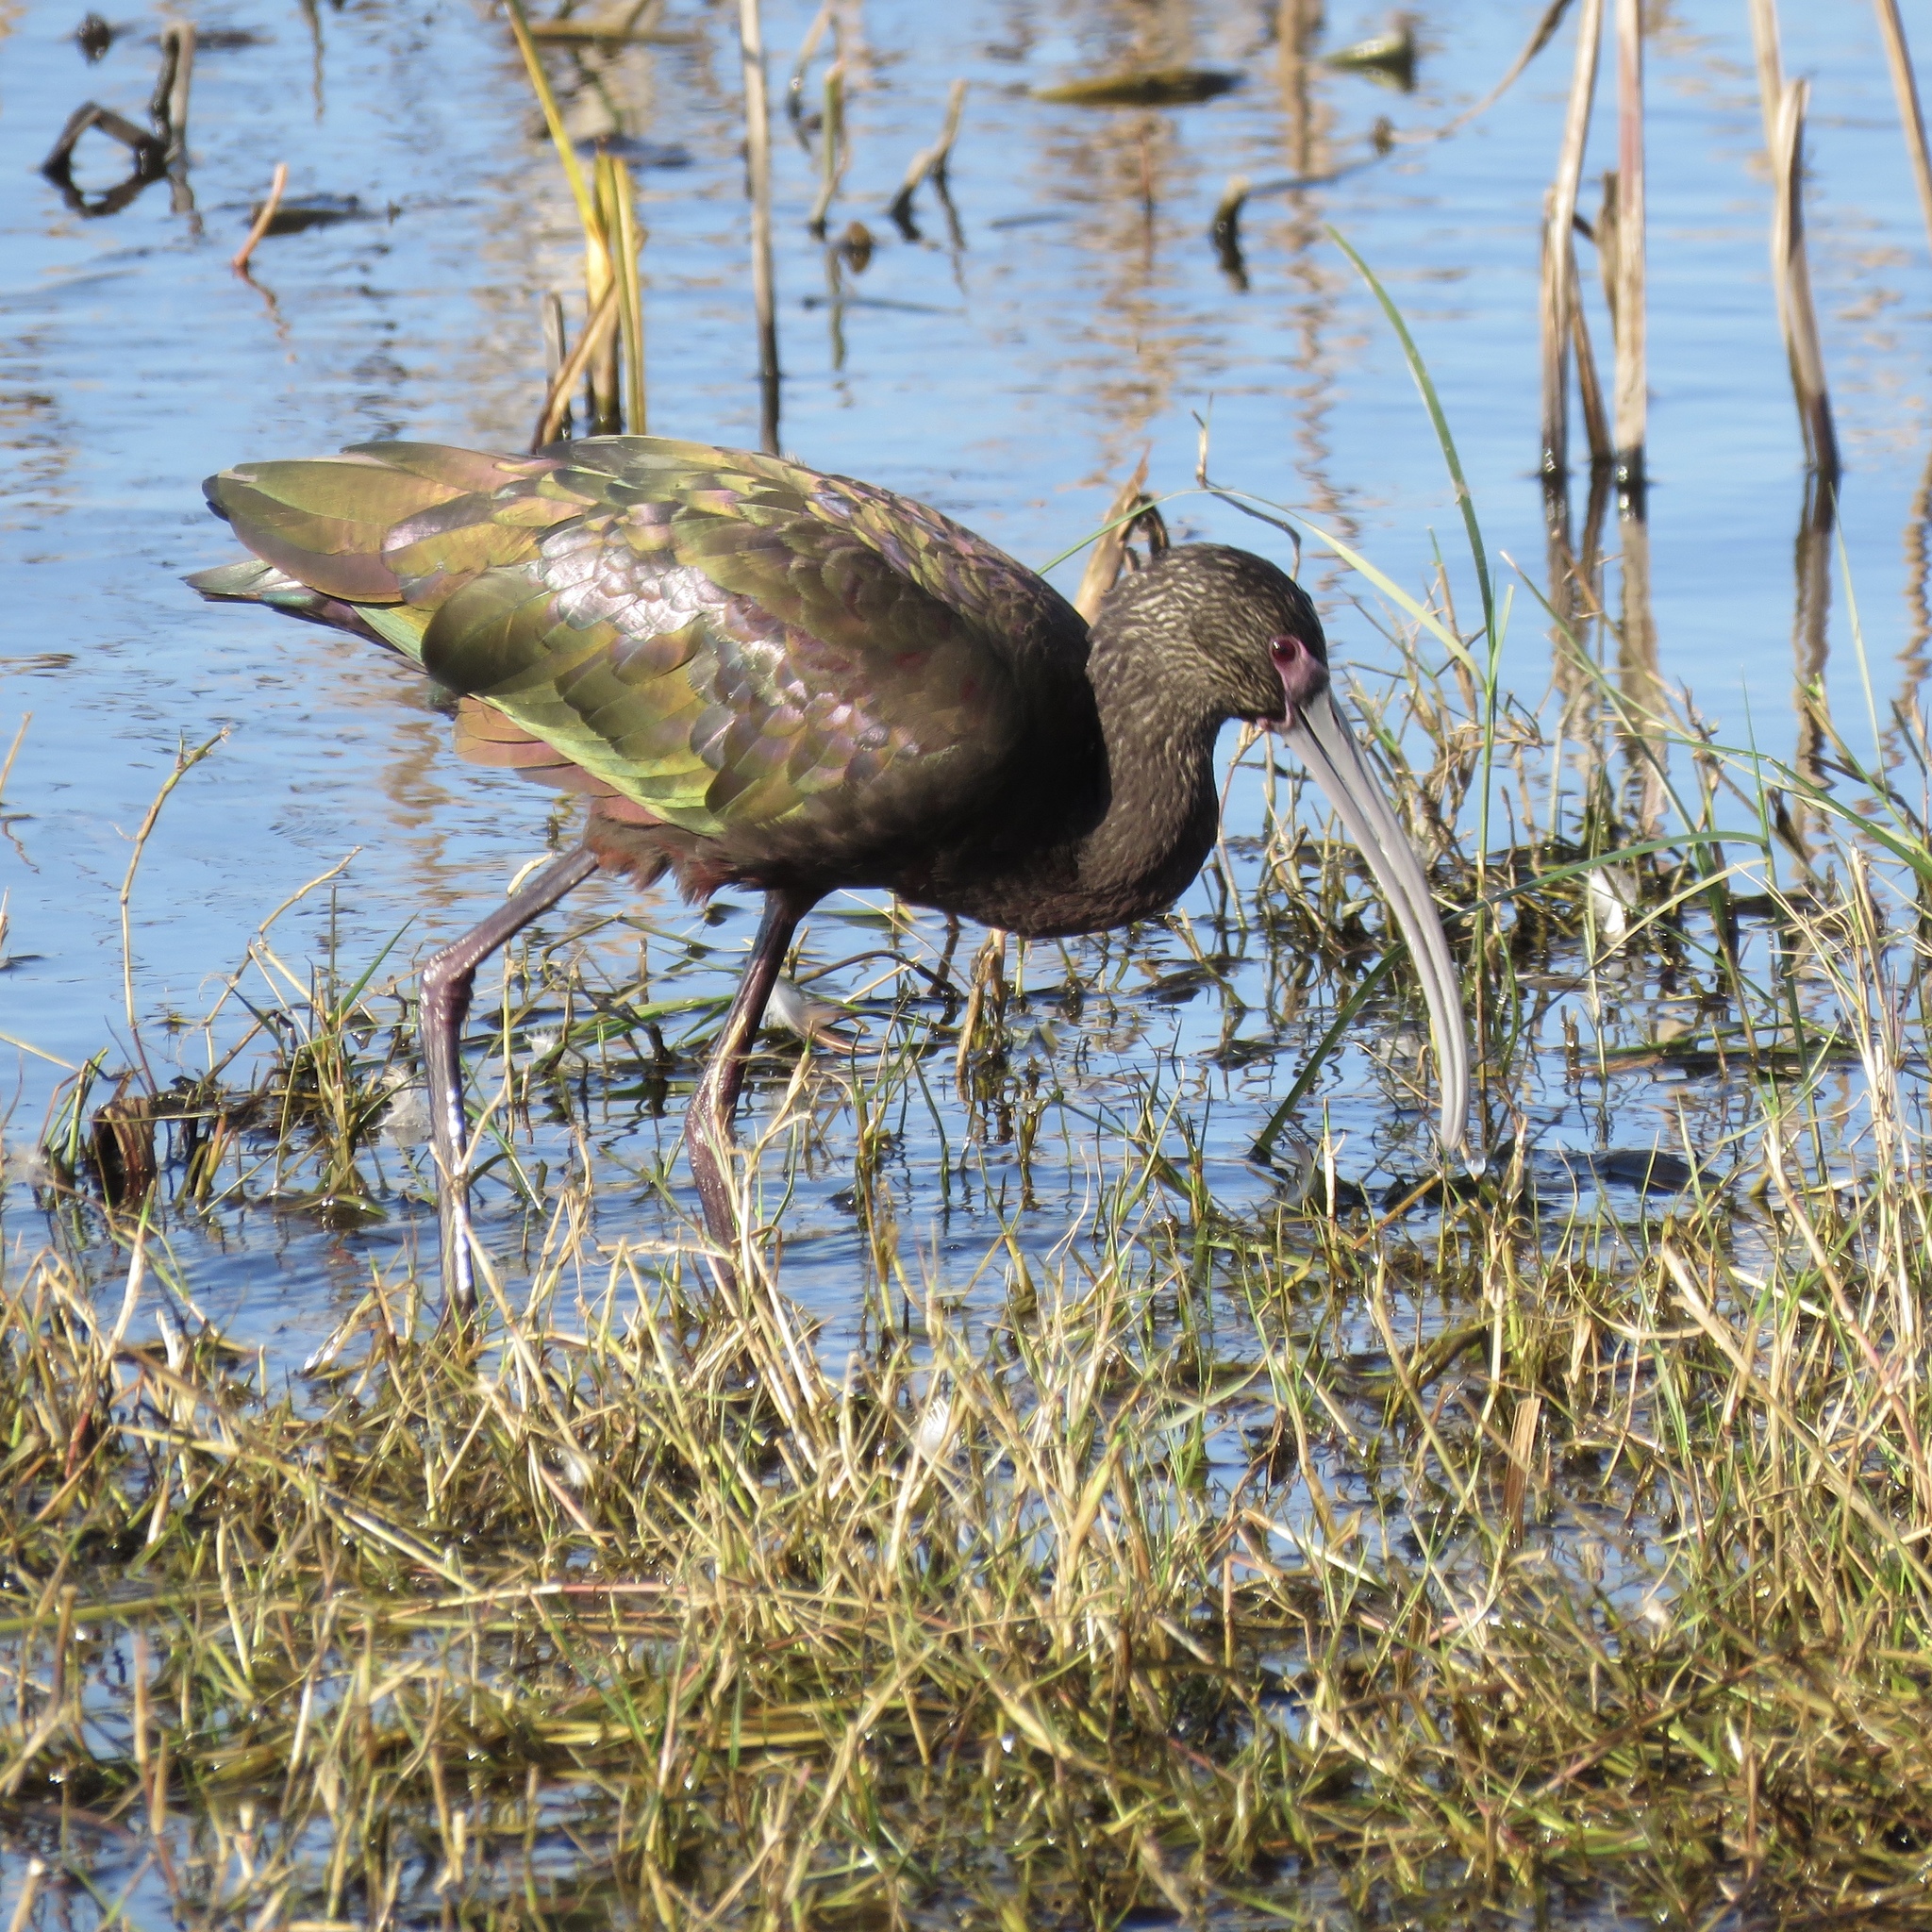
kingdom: Animalia
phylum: Chordata
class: Aves
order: Pelecaniformes
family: Threskiornithidae
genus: Plegadis
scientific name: Plegadis chihi
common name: White-faced ibis
